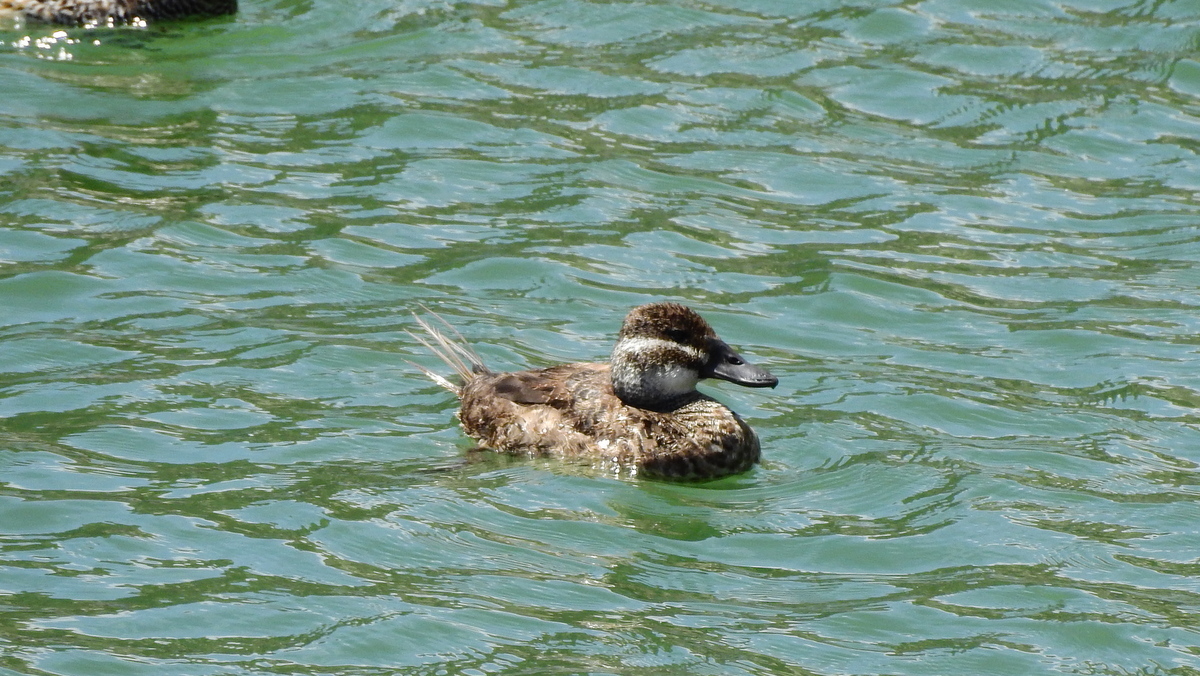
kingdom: Animalia
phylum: Chordata
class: Aves
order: Anseriformes
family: Anatidae
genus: Oxyura
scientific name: Oxyura vittata
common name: Lake duck
